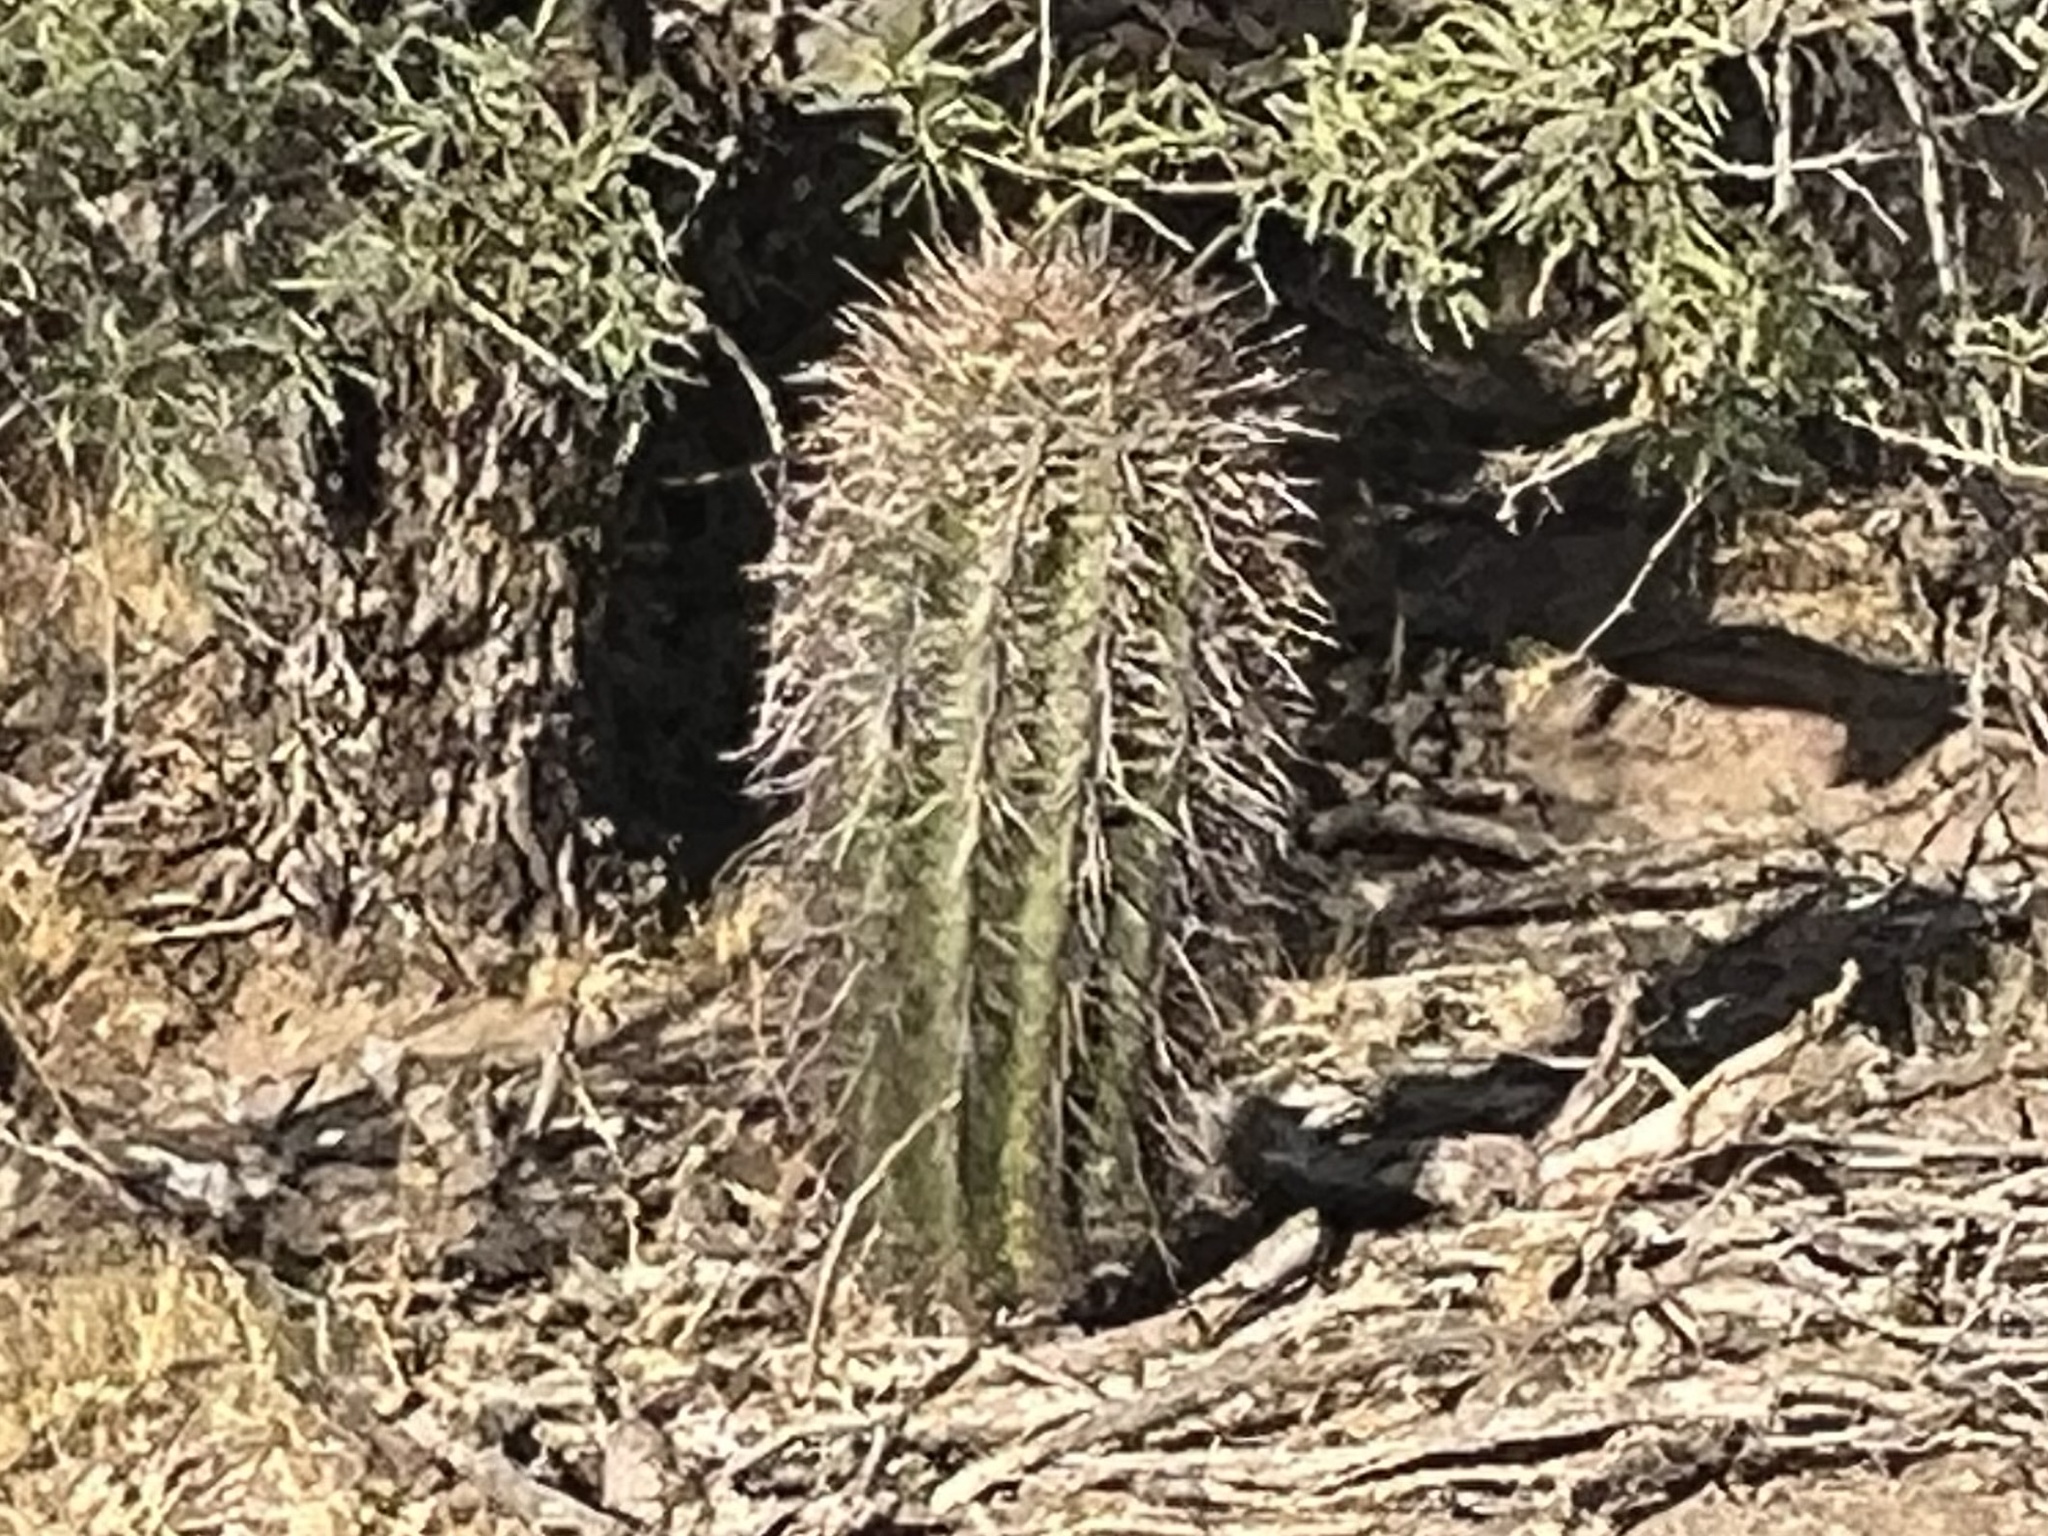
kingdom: Plantae
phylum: Tracheophyta
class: Magnoliopsida
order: Caryophyllales
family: Cactaceae
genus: Carnegiea
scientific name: Carnegiea gigantea
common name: Saguaro
